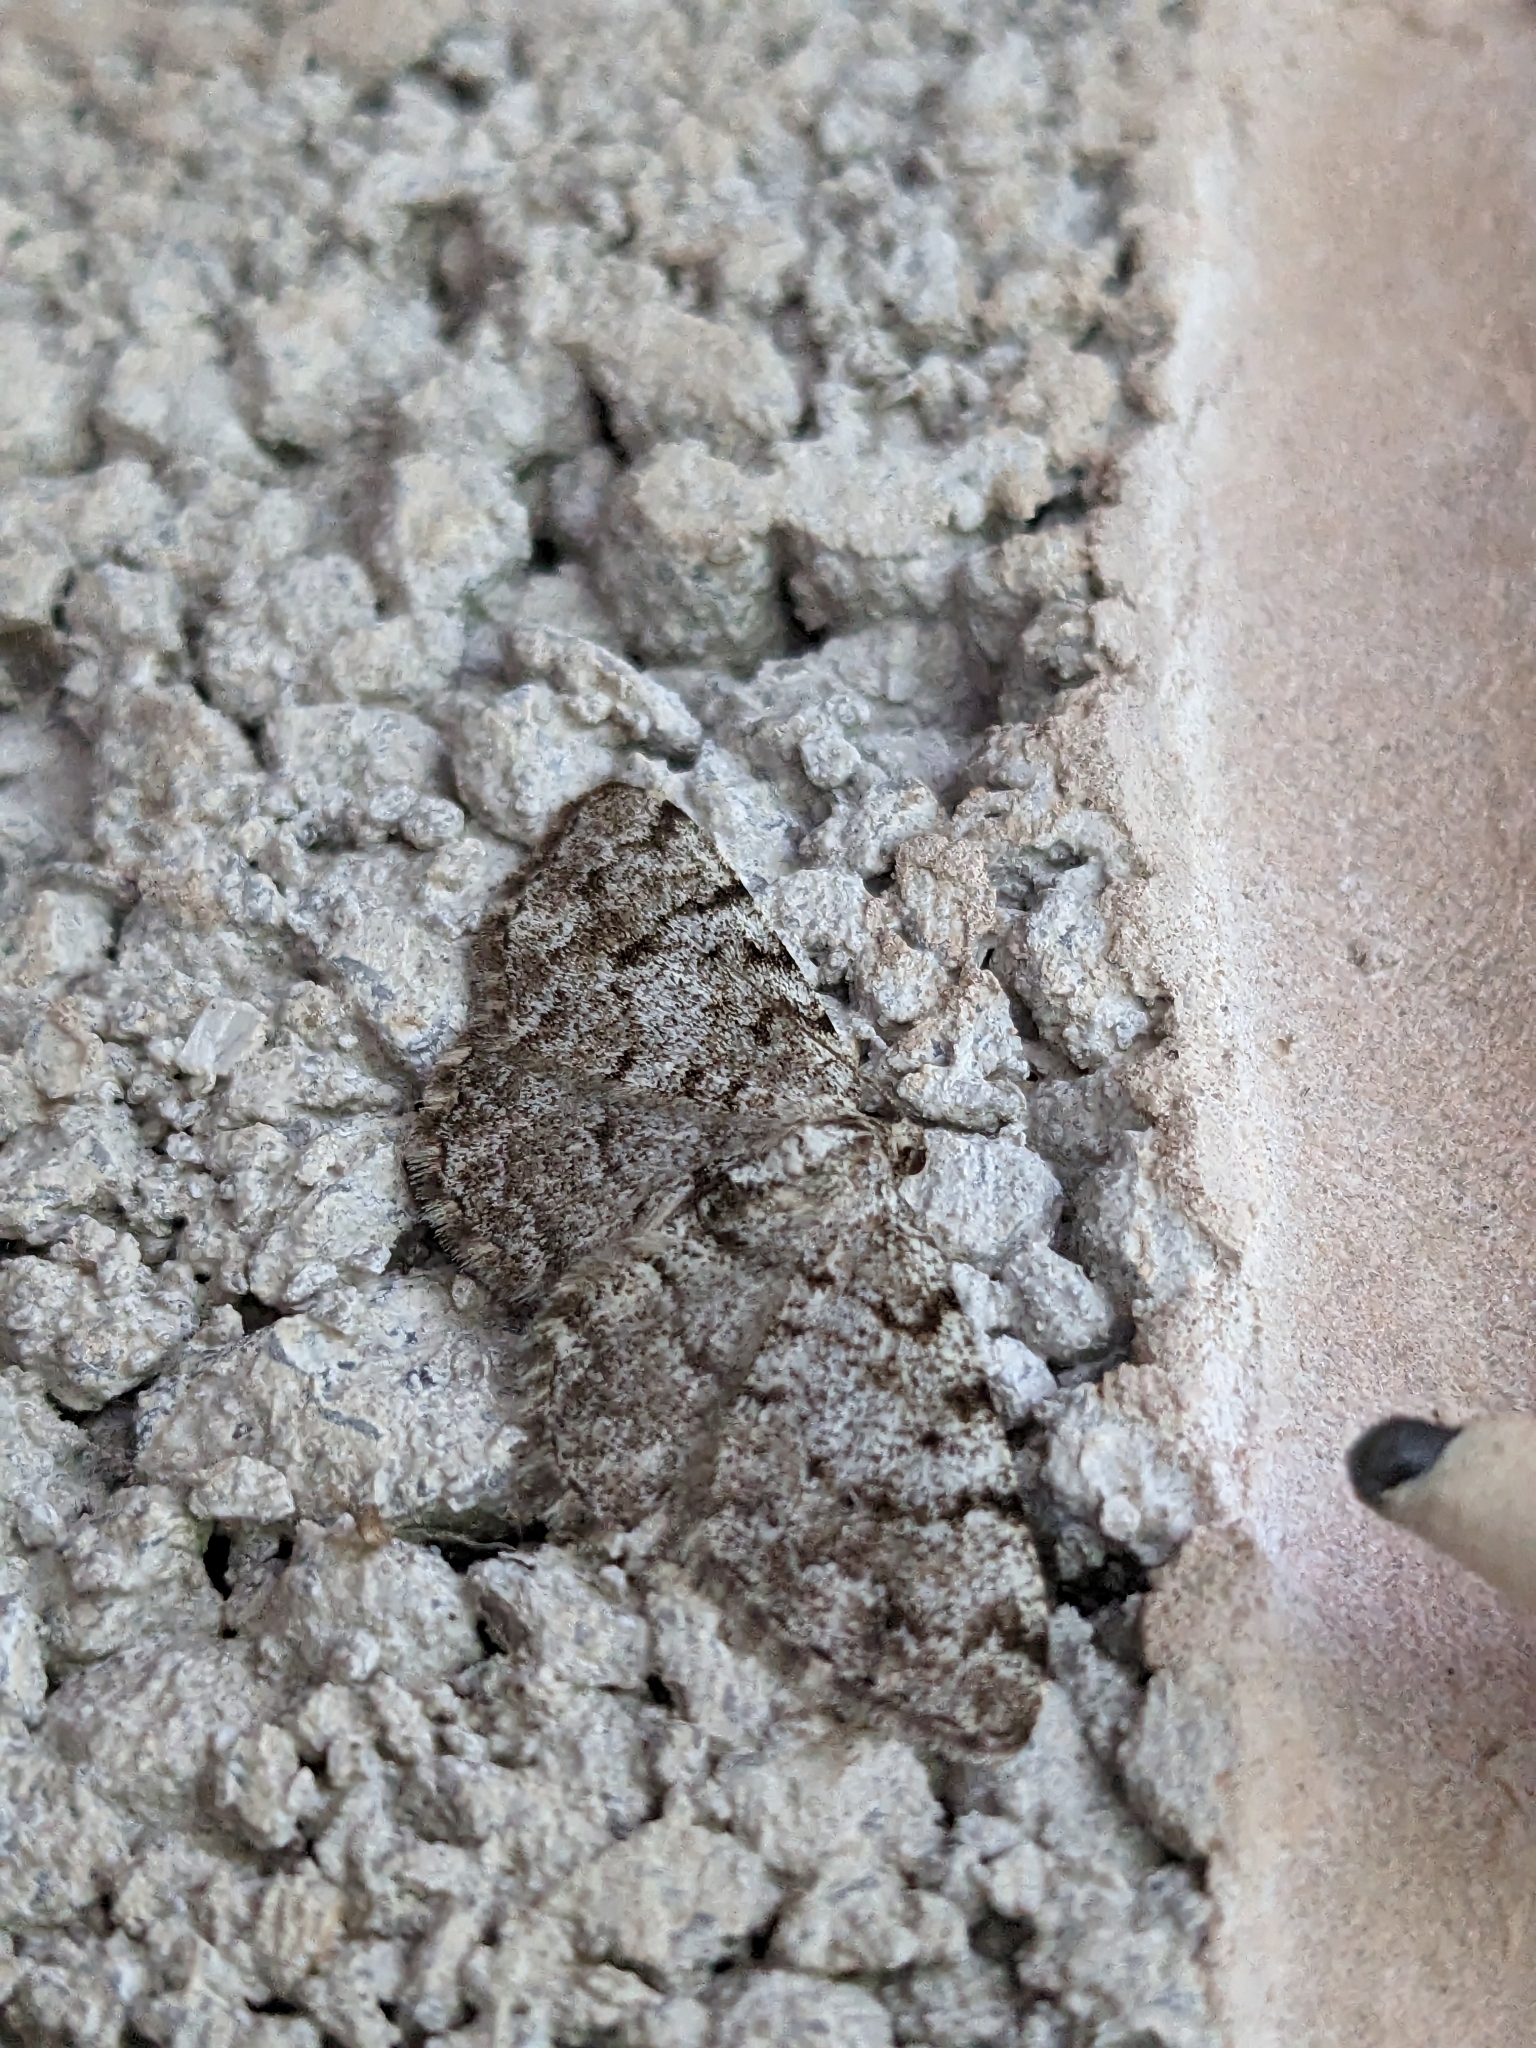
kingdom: Animalia
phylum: Arthropoda
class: Insecta
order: Lepidoptera
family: Geometridae
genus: Aethalura
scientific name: Aethalura punctulata
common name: Grey birch
